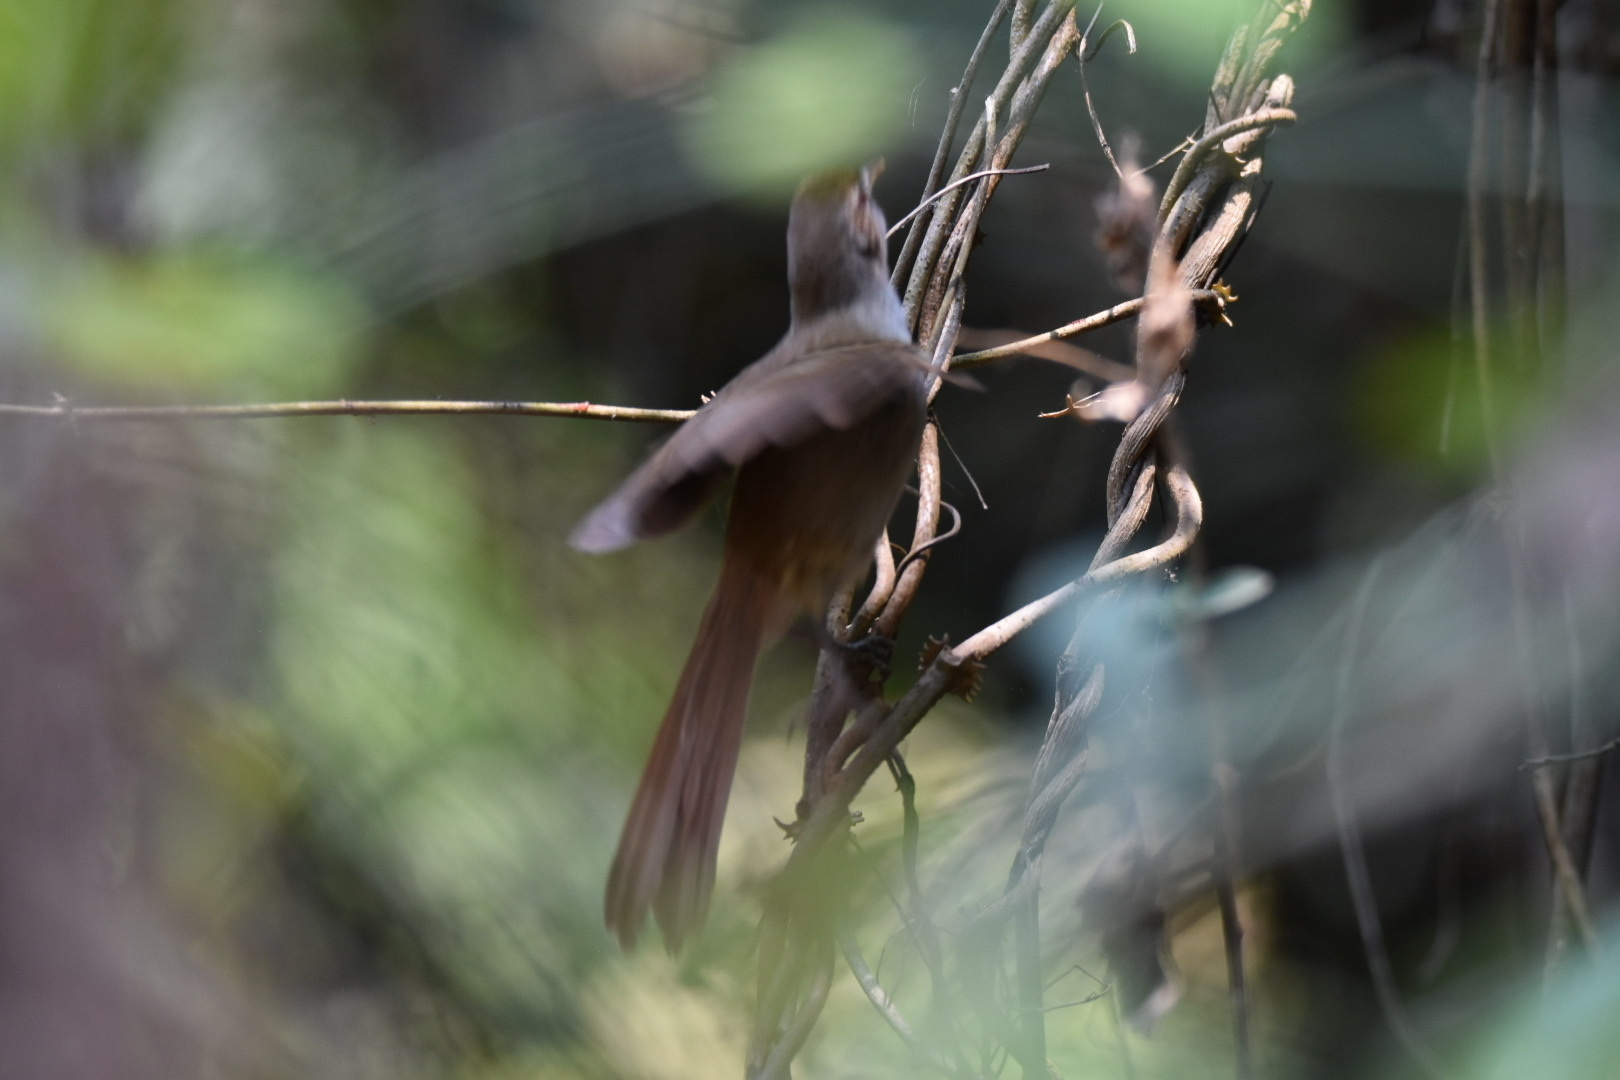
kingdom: Animalia
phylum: Chordata
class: Aves
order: Passeriformes
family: Pycnonotidae
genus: Phyllastrephus
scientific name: Phyllastrephus terrestris
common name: Terrestrial brownbul
